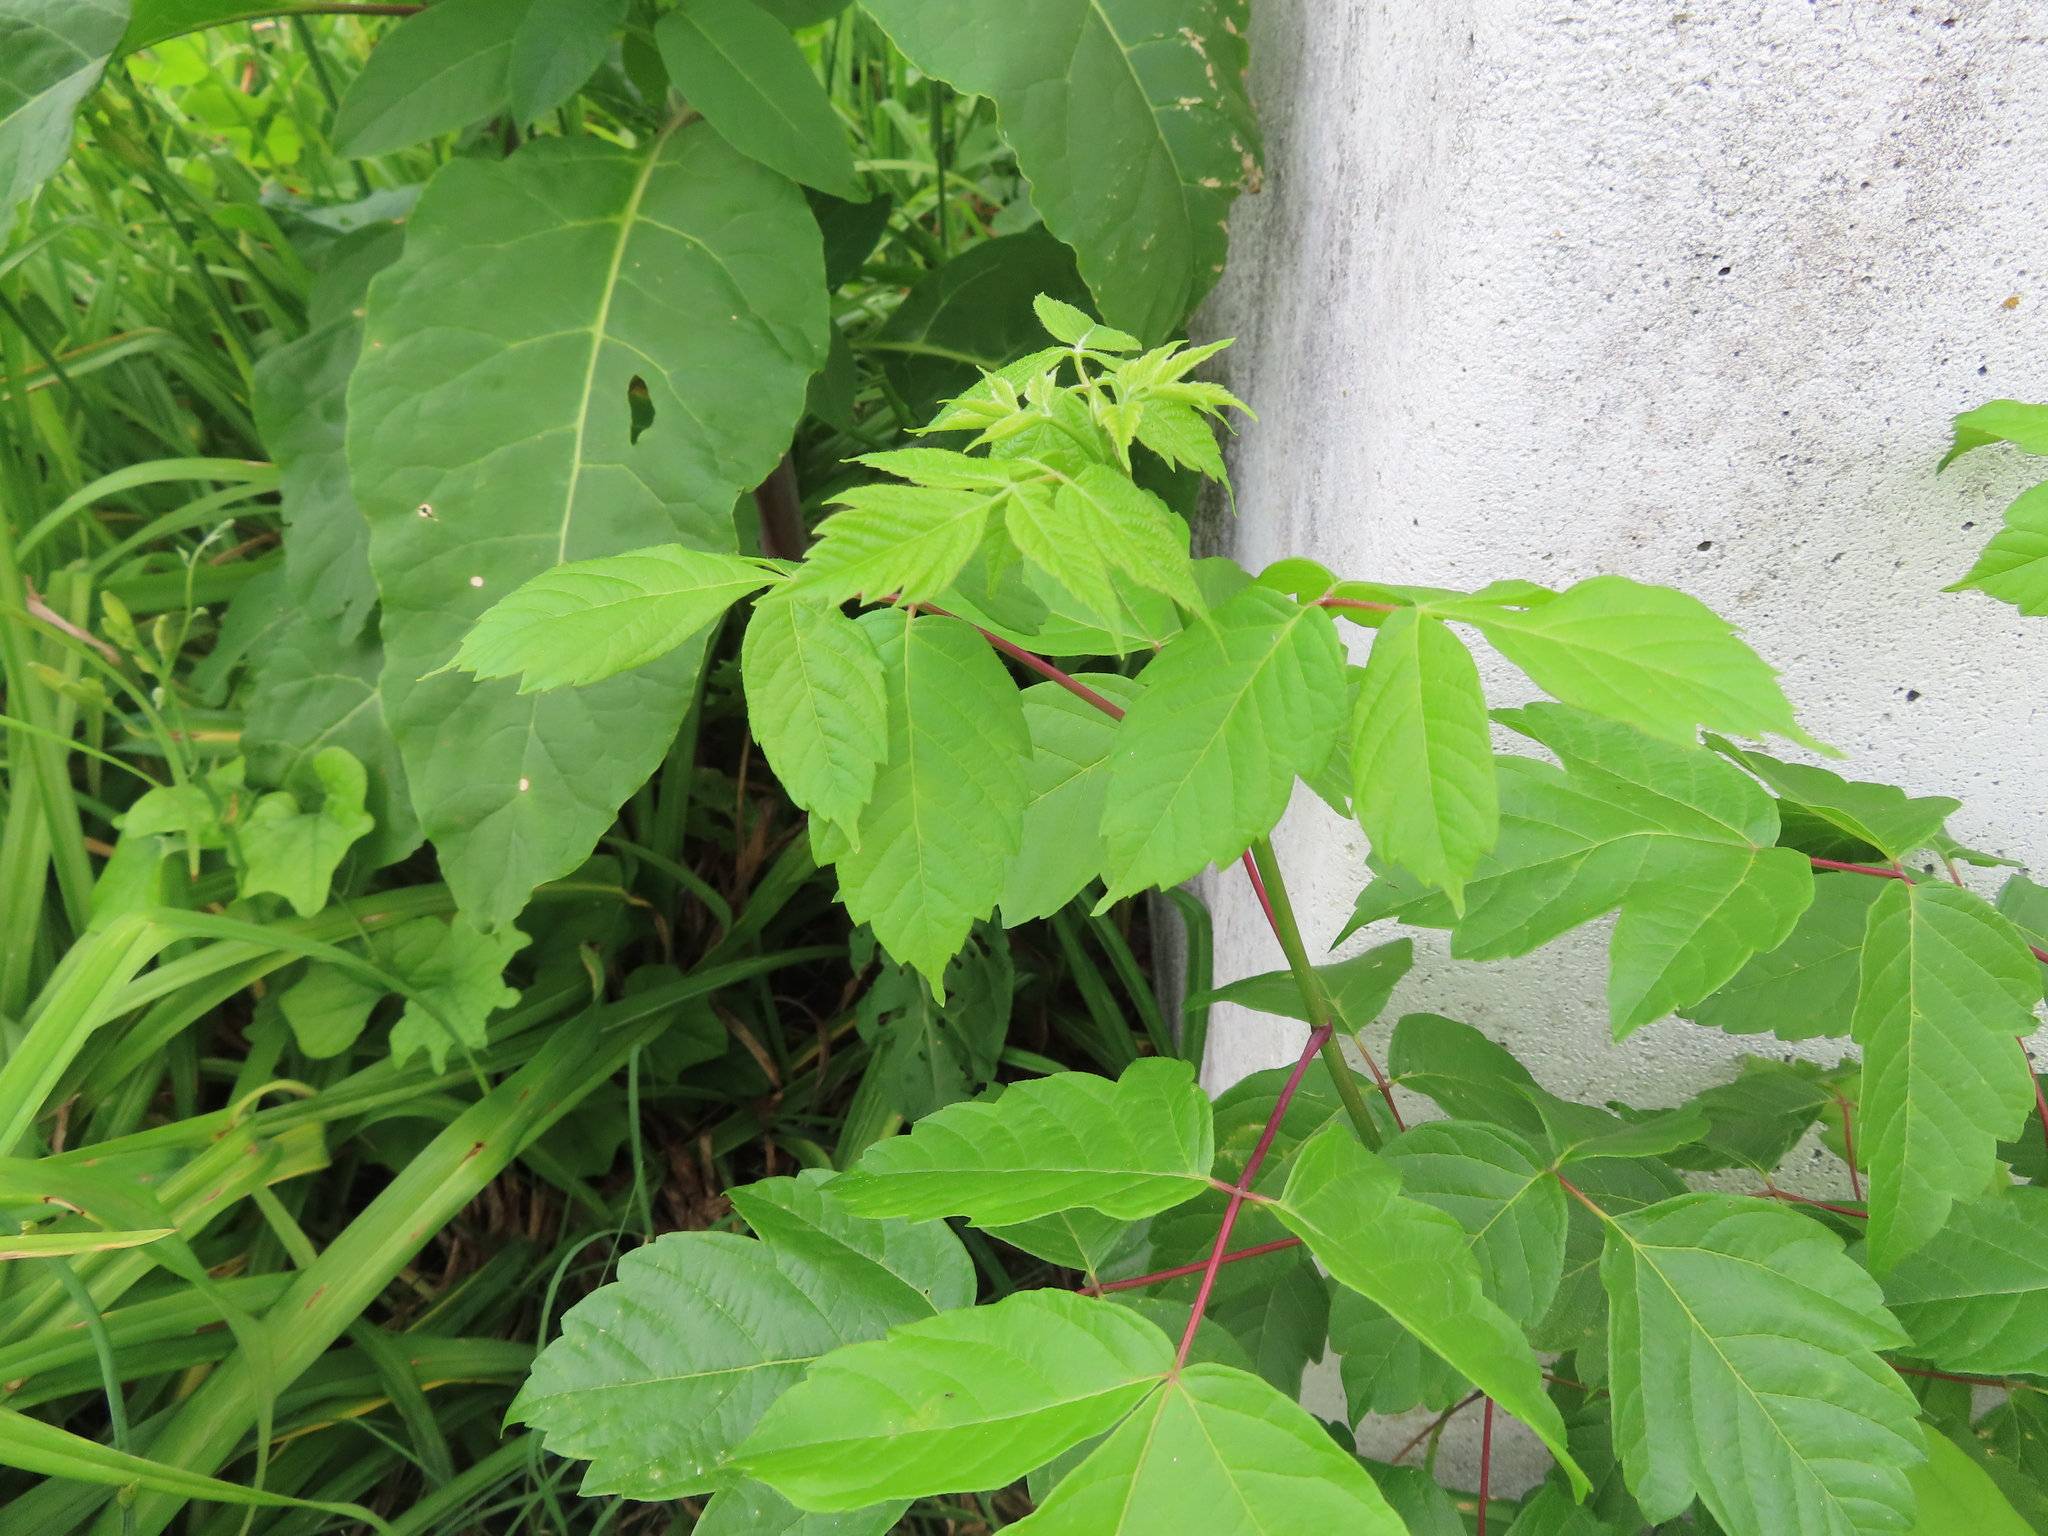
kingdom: Plantae
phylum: Tracheophyta
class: Magnoliopsida
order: Sapindales
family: Sapindaceae
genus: Acer
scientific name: Acer negundo
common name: Ashleaf maple
